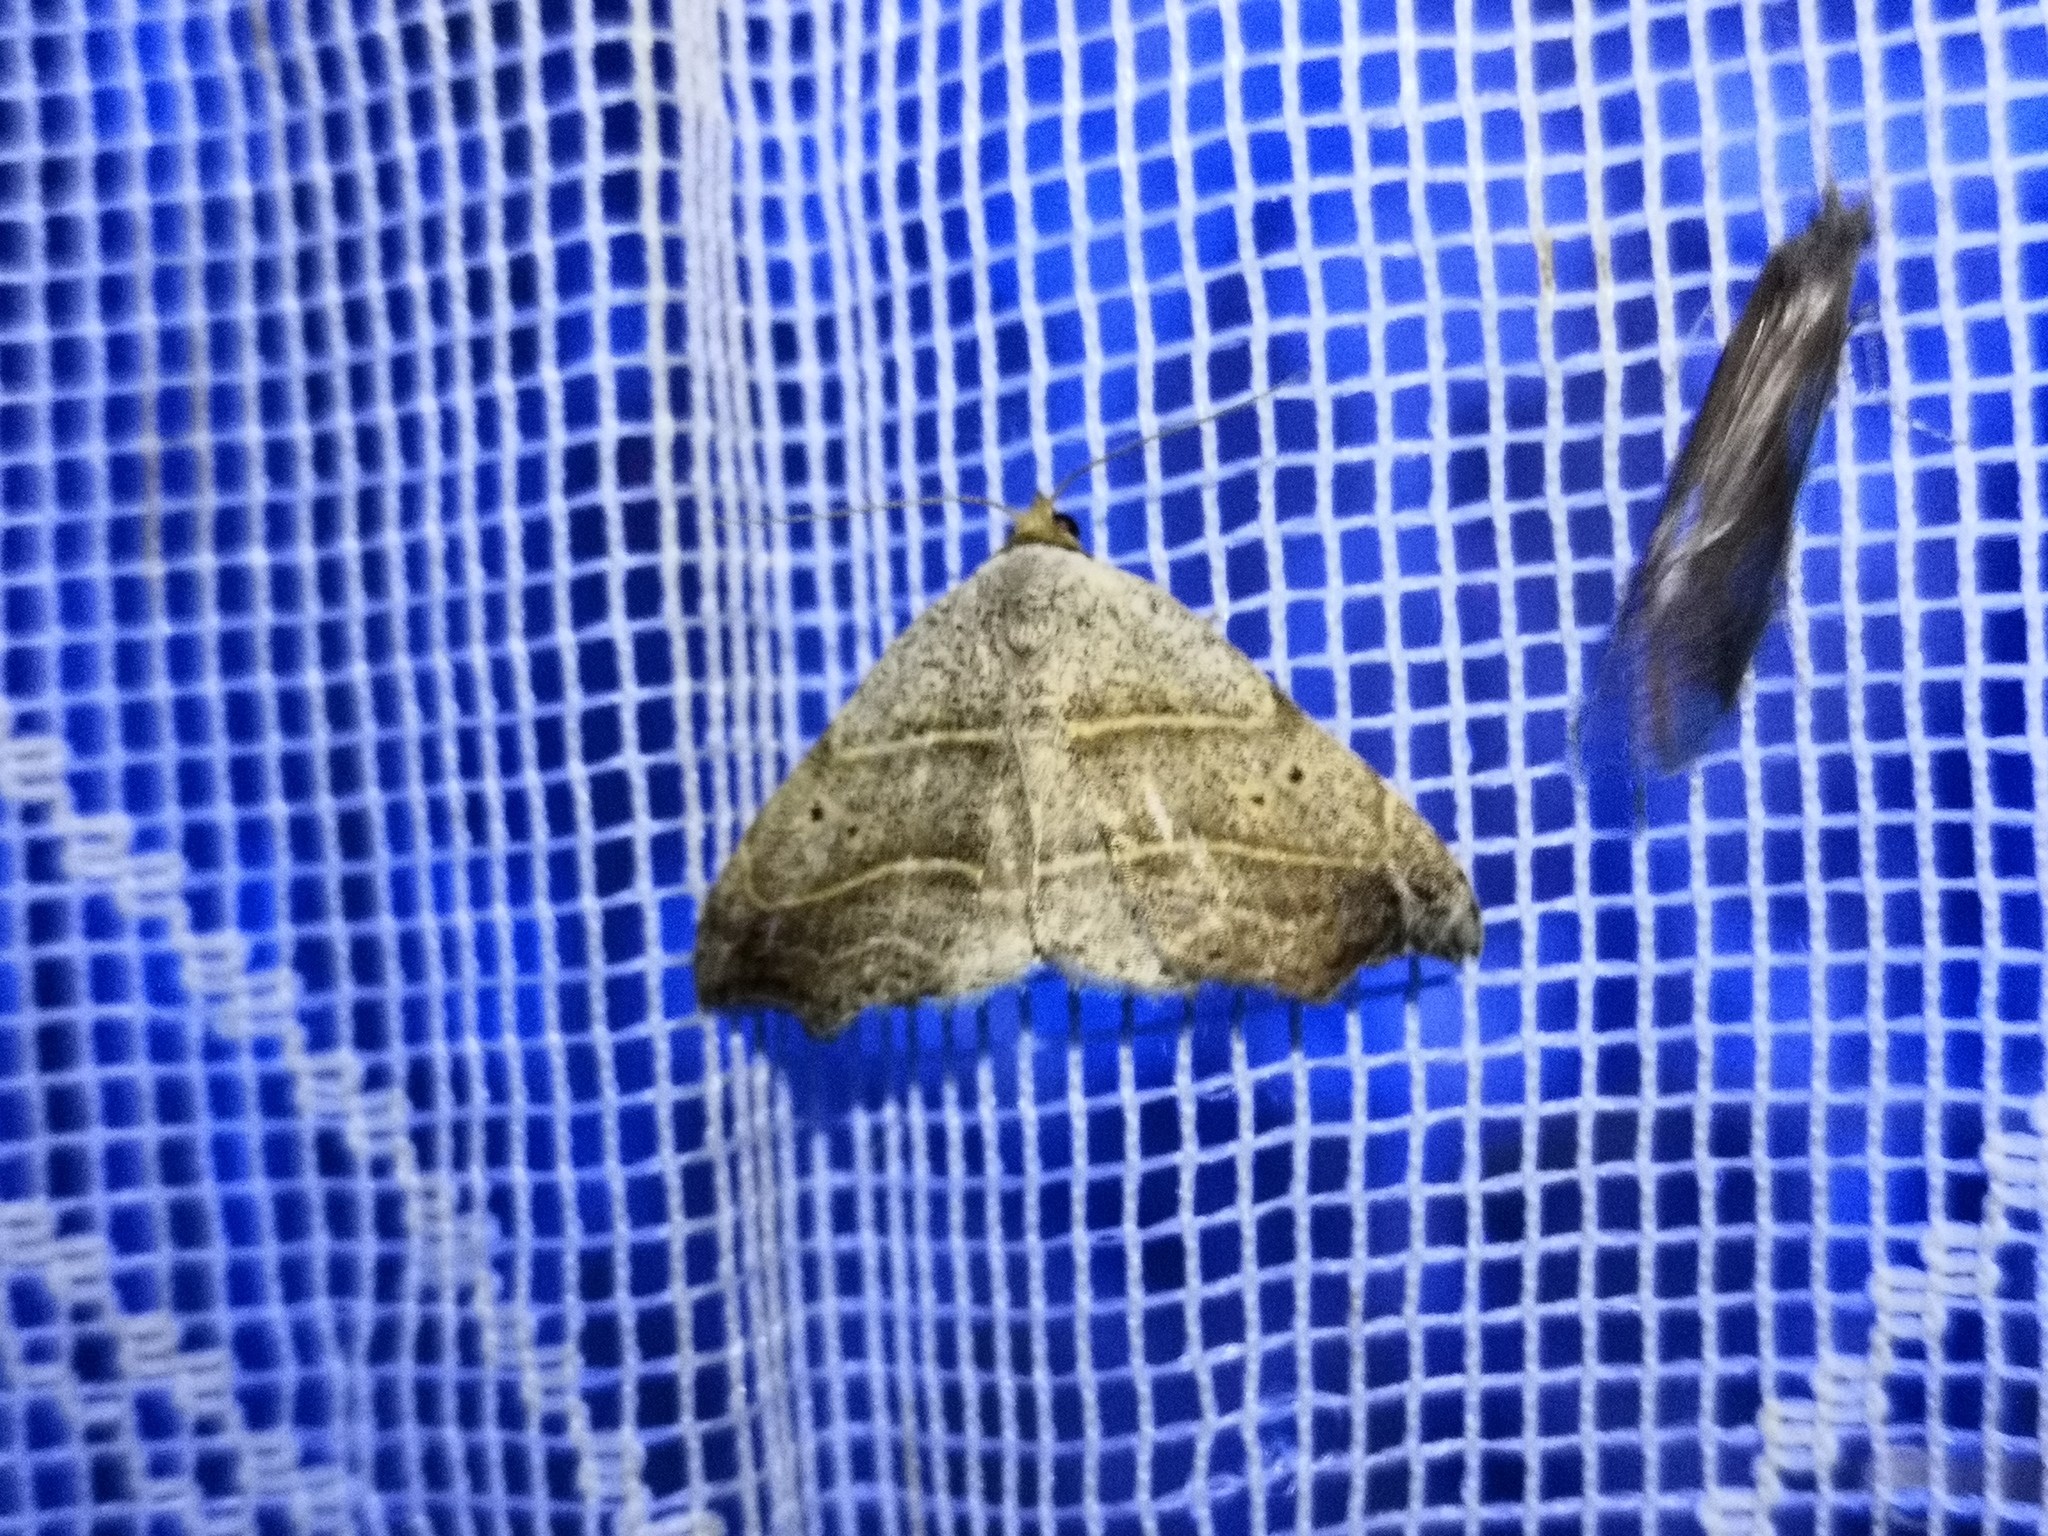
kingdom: Animalia
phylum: Arthropoda
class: Insecta
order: Lepidoptera
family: Erebidae
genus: Laspeyria
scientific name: Laspeyria flexula
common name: Beautiful hook-tip
